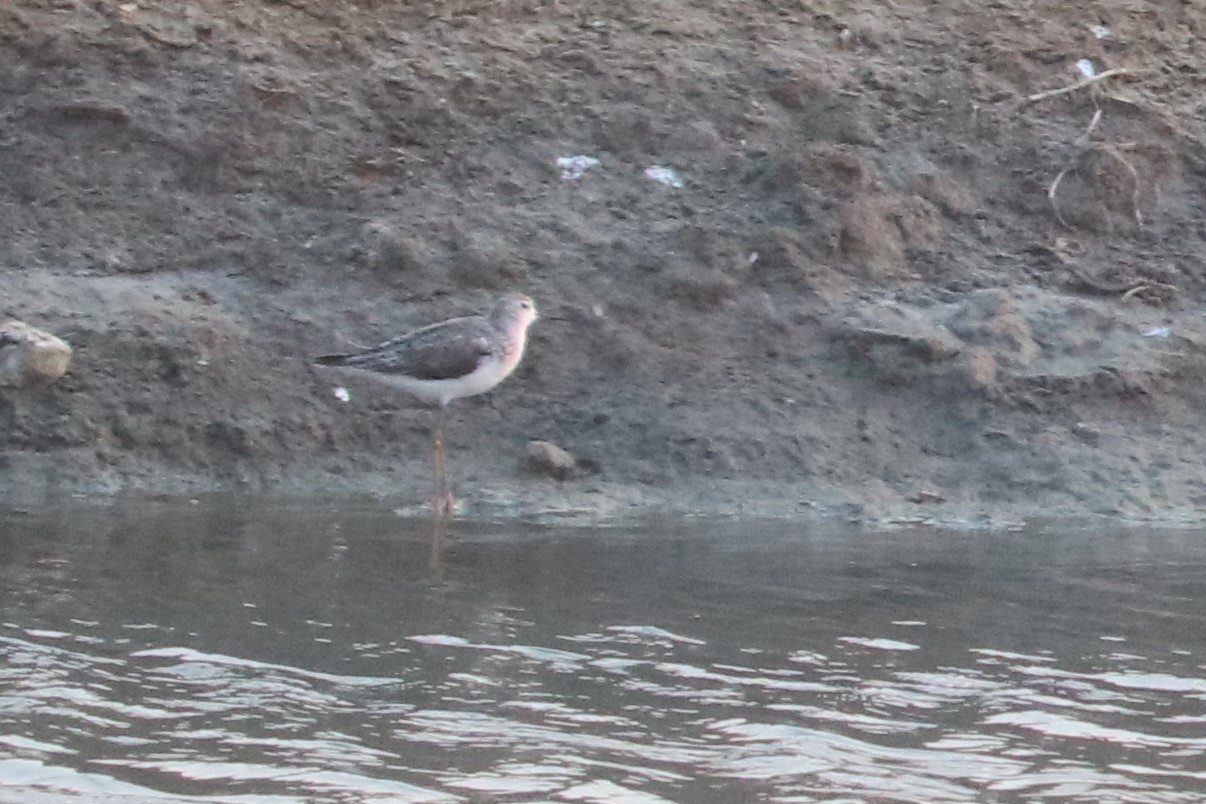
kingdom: Animalia
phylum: Chordata
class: Aves
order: Charadriiformes
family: Scolopacidae
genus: Tringa
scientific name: Tringa stagnatilis
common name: Marsh sandpiper
